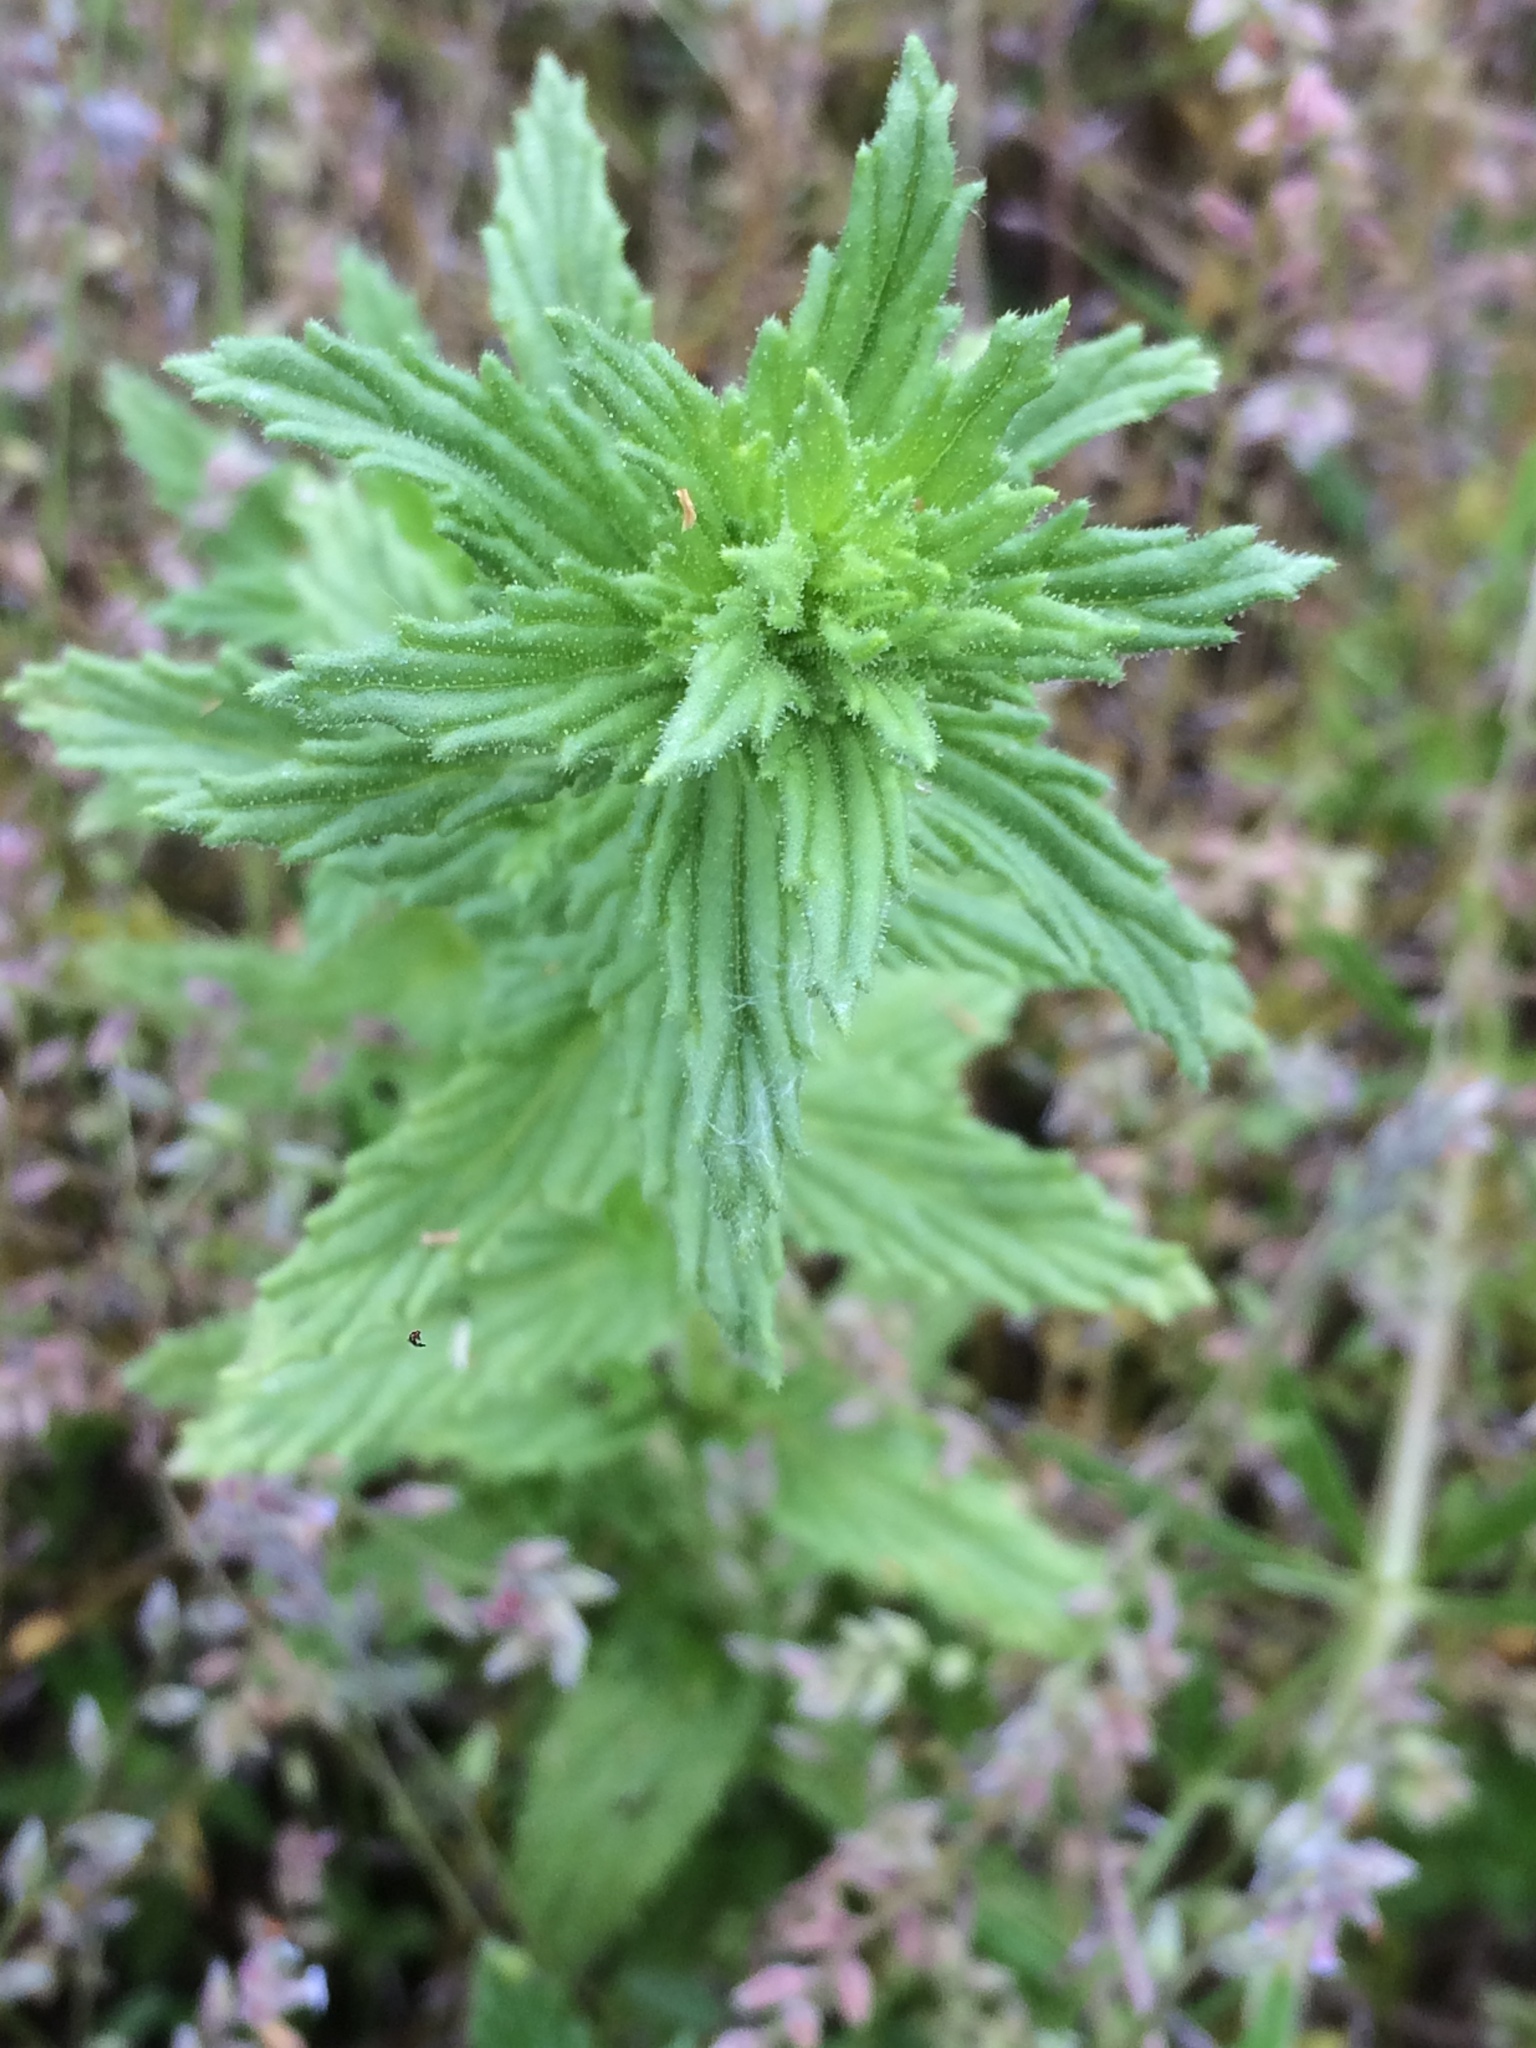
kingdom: Plantae
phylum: Tracheophyta
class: Magnoliopsida
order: Lamiales
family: Orobanchaceae
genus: Bellardia
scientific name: Bellardia viscosa
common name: Sticky parentucellia
